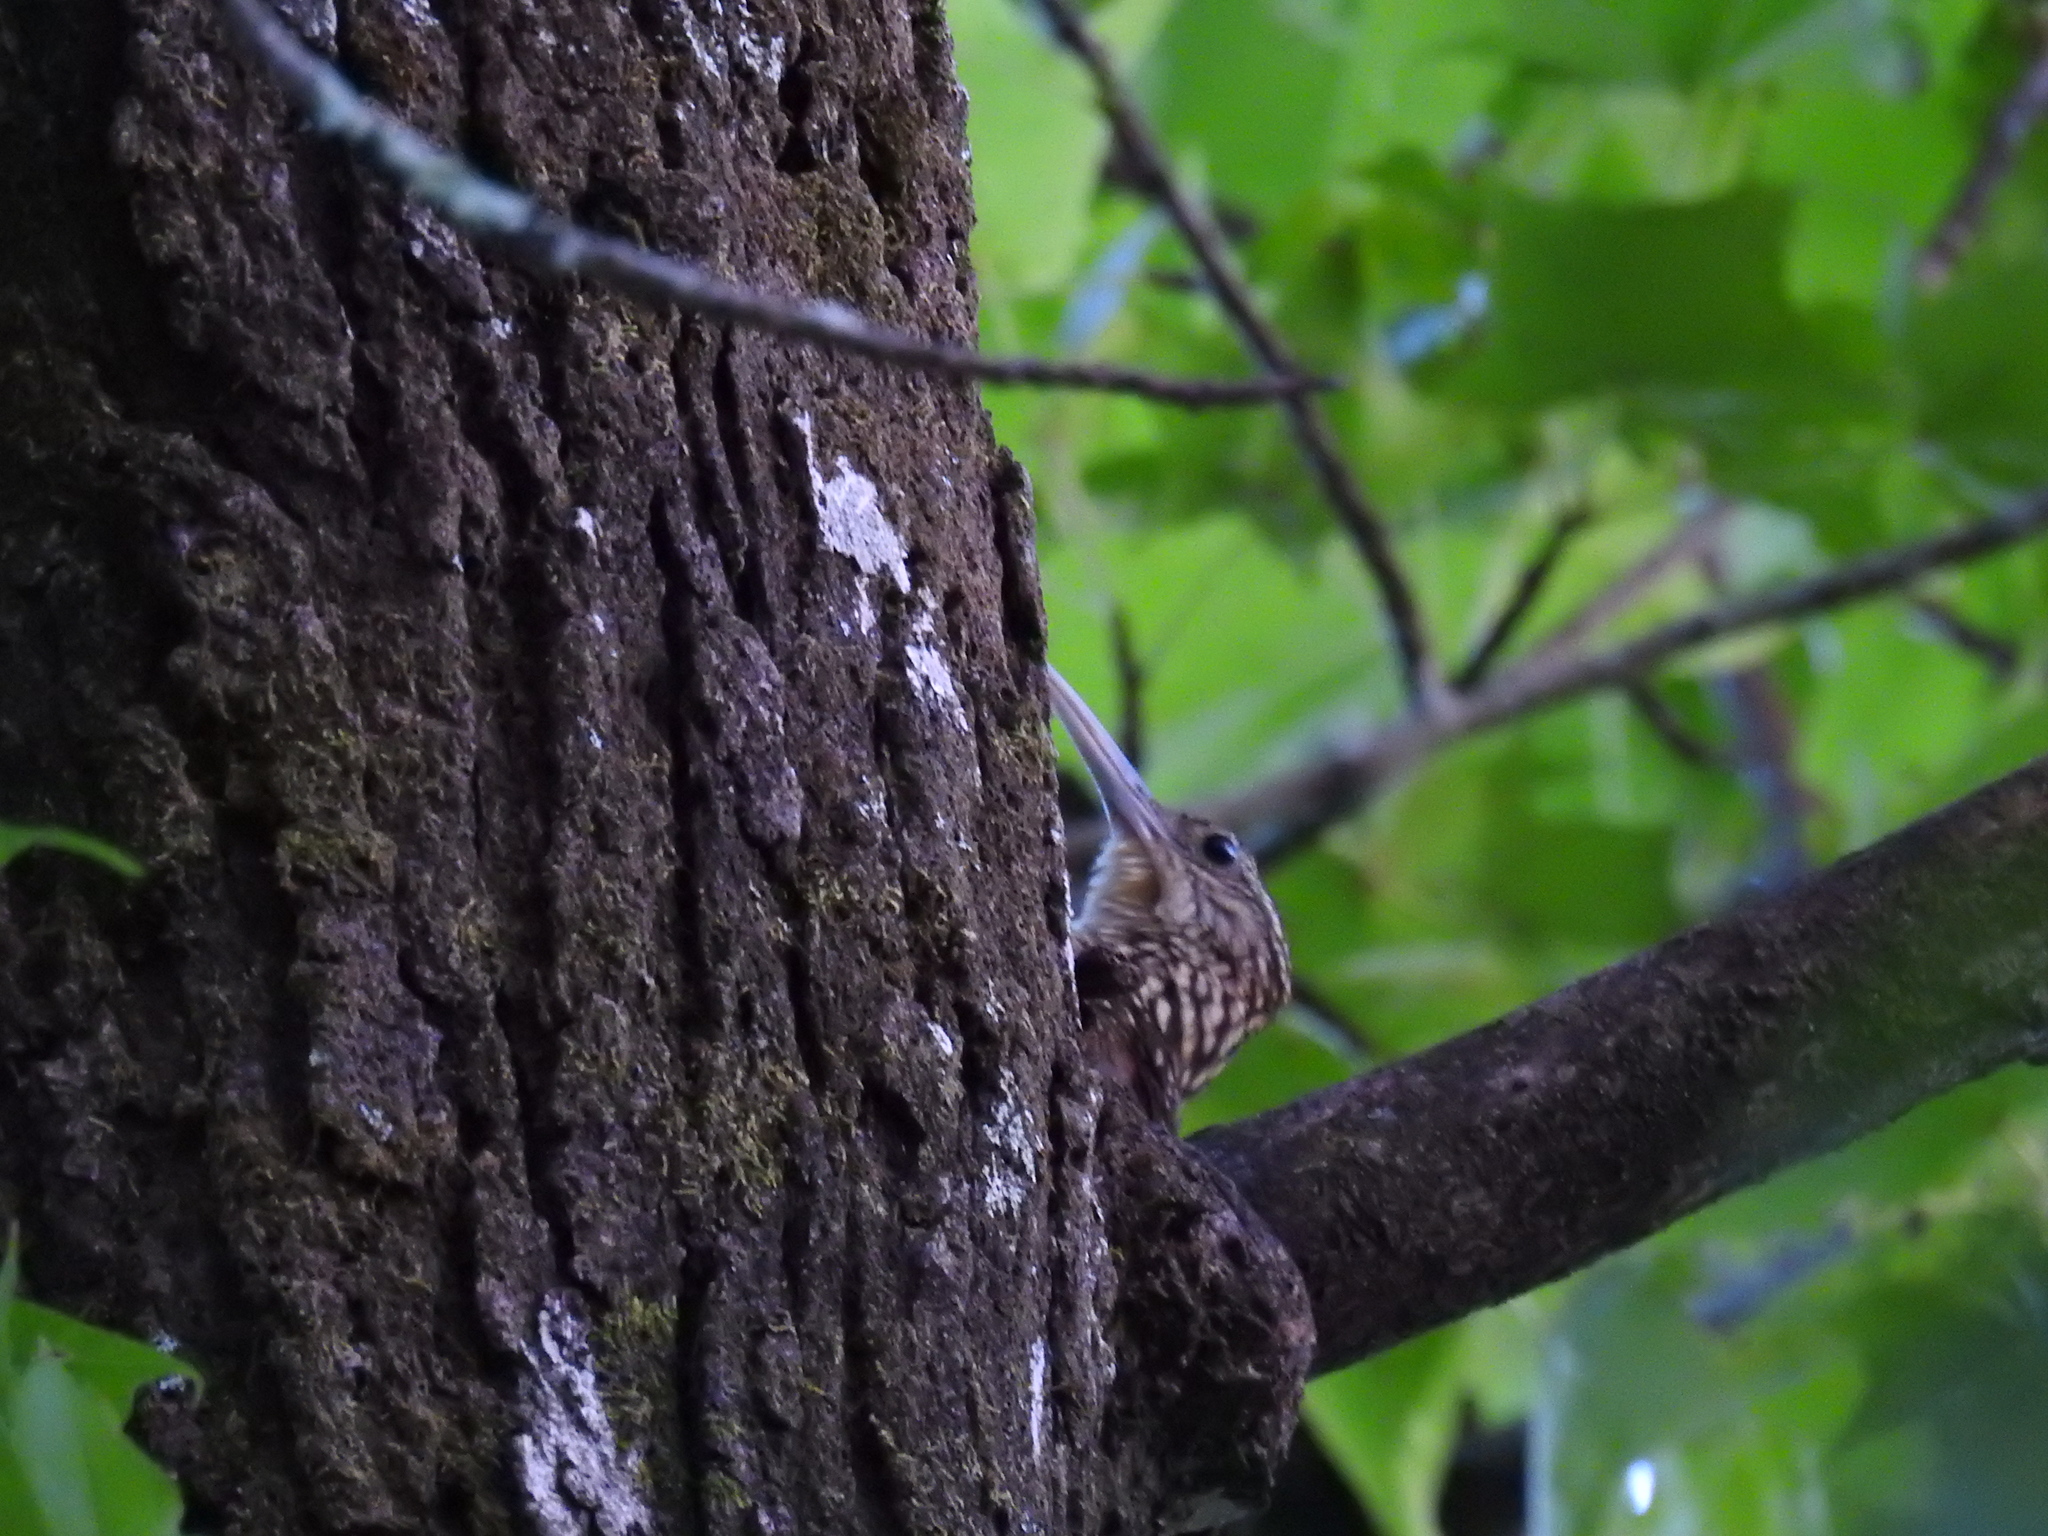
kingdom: Animalia
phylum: Chordata
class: Aves
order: Passeriformes
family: Furnariidae
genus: Xiphorhynchus
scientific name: Xiphorhynchus flavigaster
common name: Ivory-billed woodcreeper
